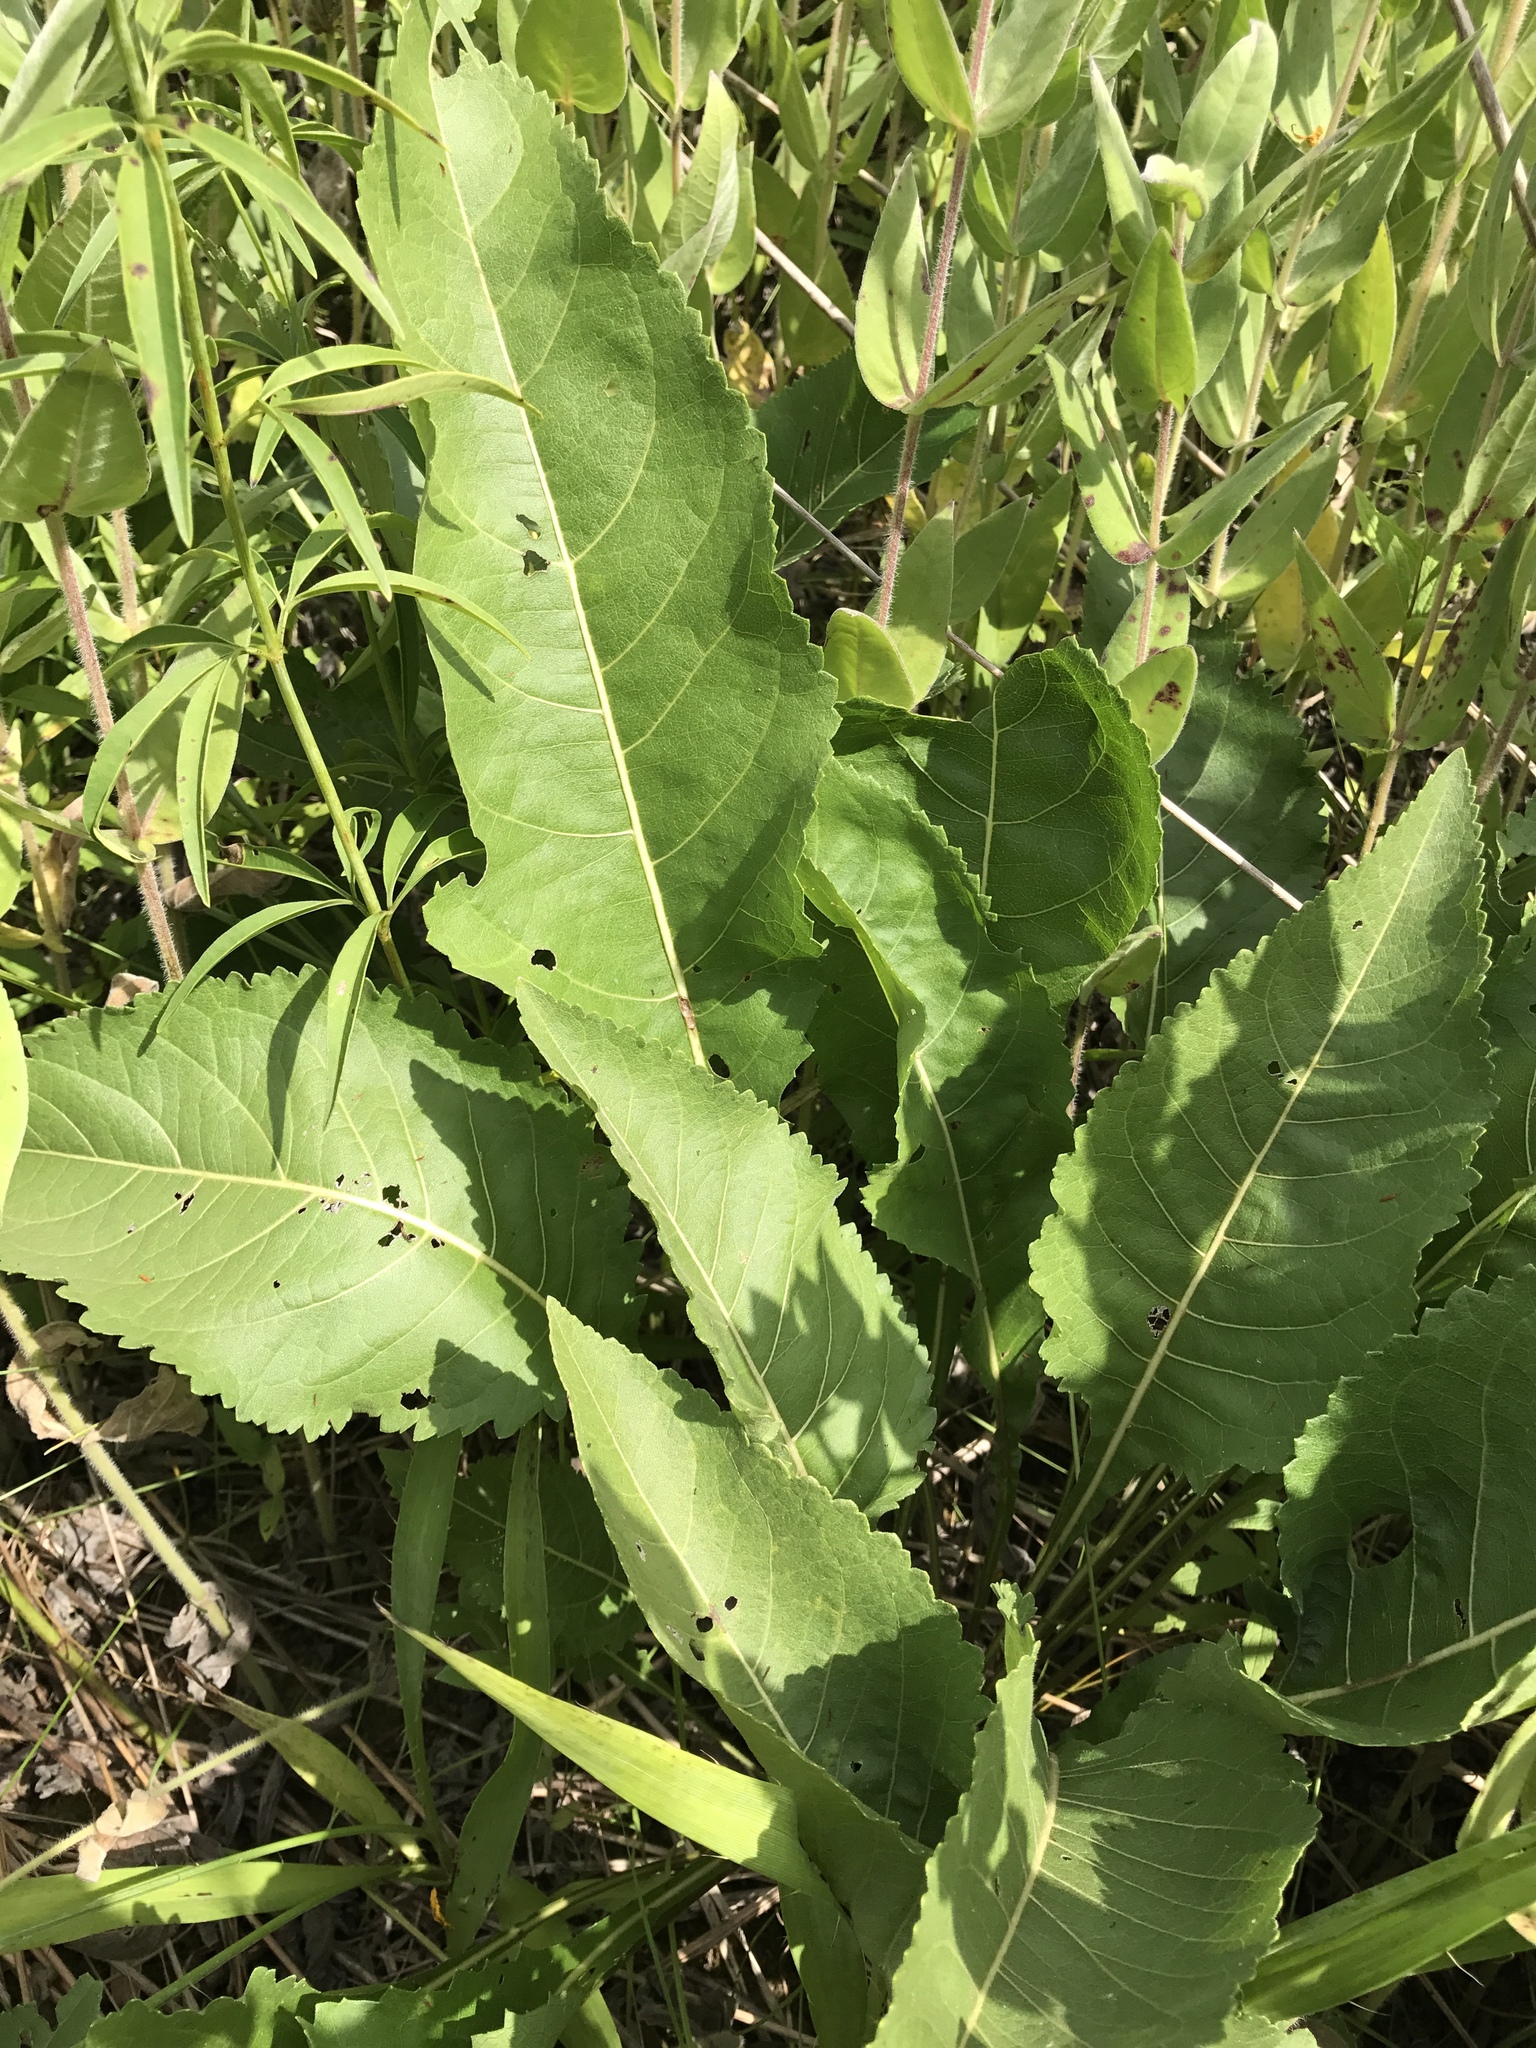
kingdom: Plantae
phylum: Tracheophyta
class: Magnoliopsida
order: Asterales
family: Asteraceae
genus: Silphium
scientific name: Silphium terebinthinaceum
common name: Basal-leaf rosinweed
